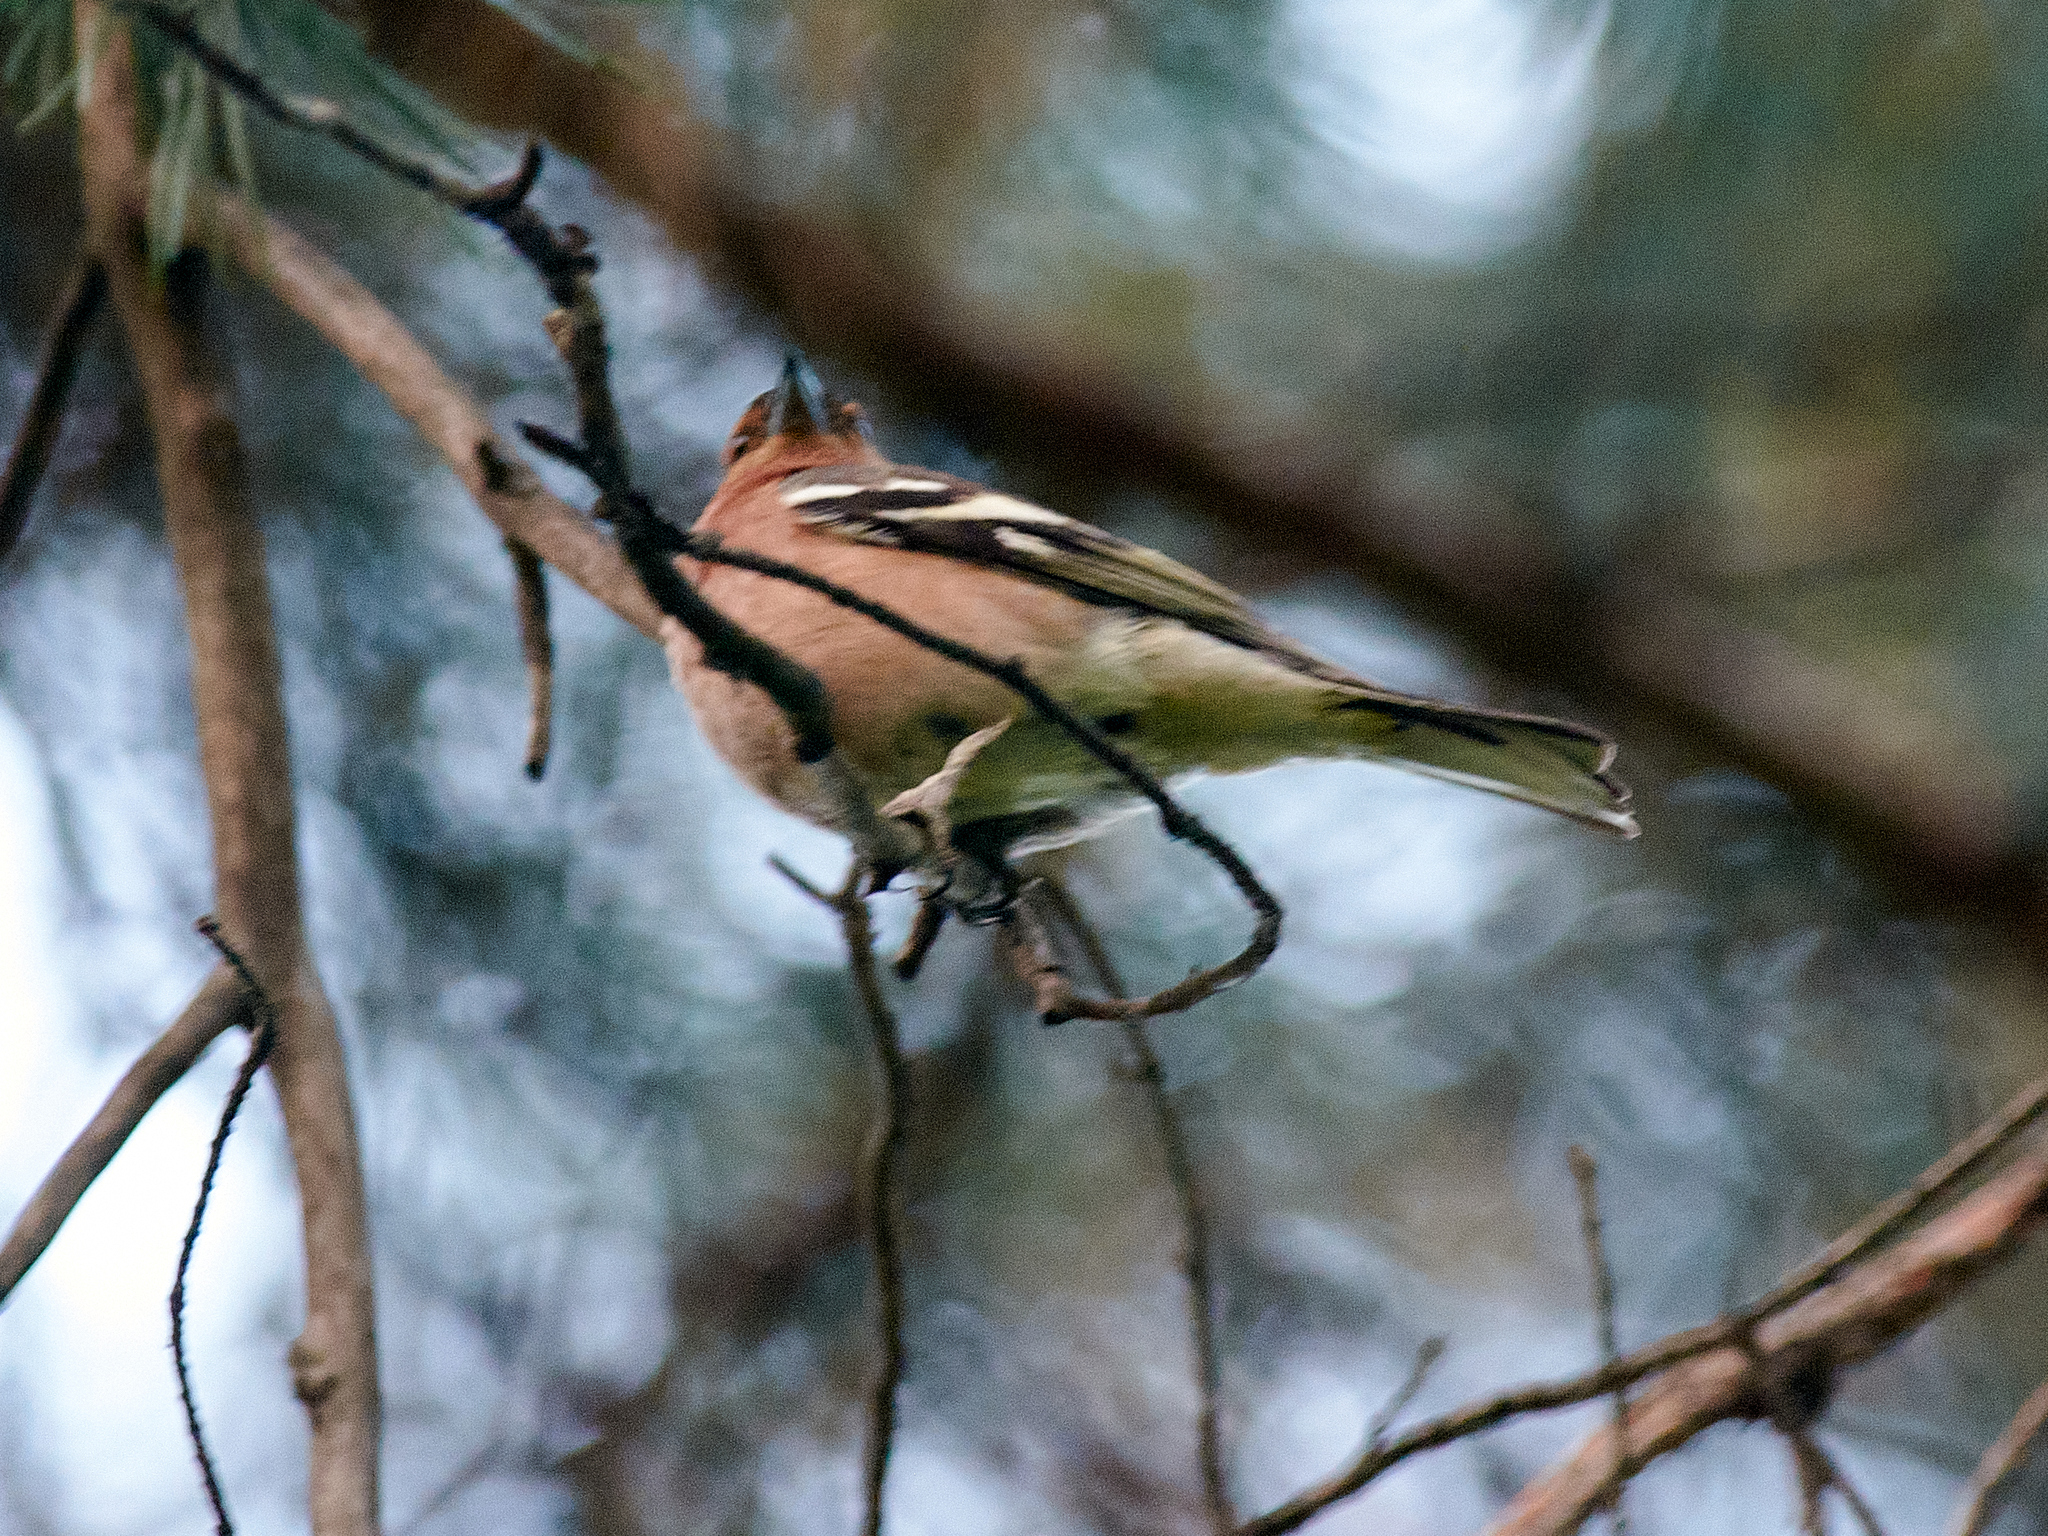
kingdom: Animalia
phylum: Chordata
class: Aves
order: Passeriformes
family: Fringillidae
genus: Fringilla
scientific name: Fringilla coelebs
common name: Common chaffinch
